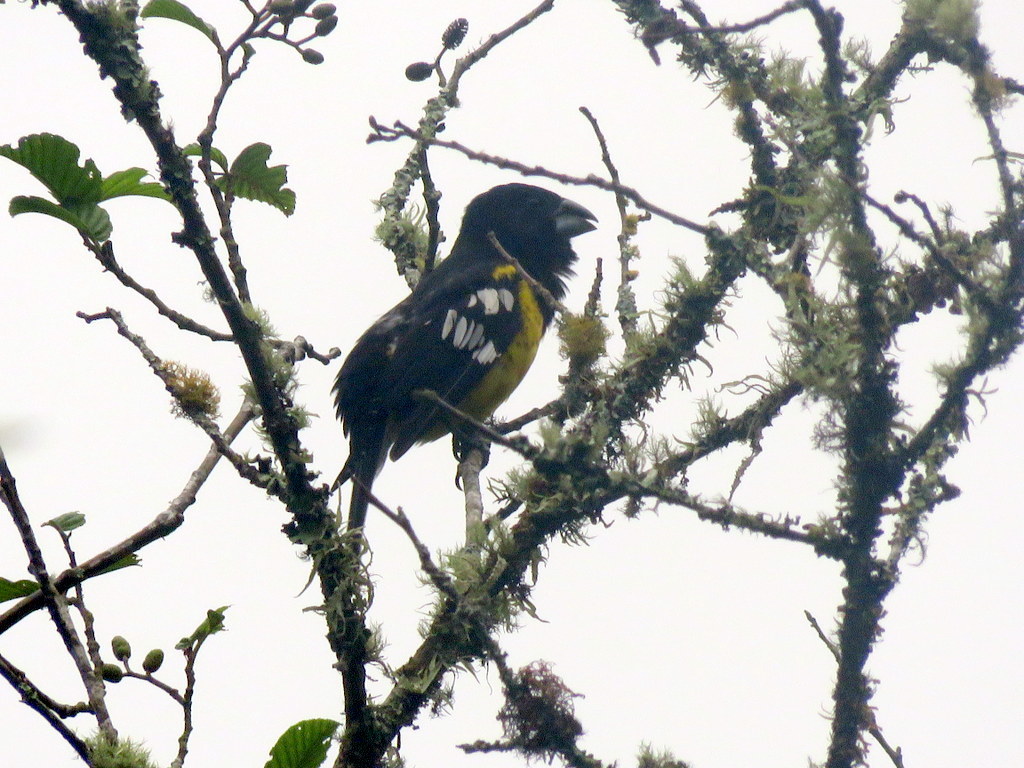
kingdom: Animalia
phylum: Chordata
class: Aves
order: Passeriformes
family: Cardinalidae
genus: Pheucticus
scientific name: Pheucticus aureoventris
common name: Black-backed grosbeak
